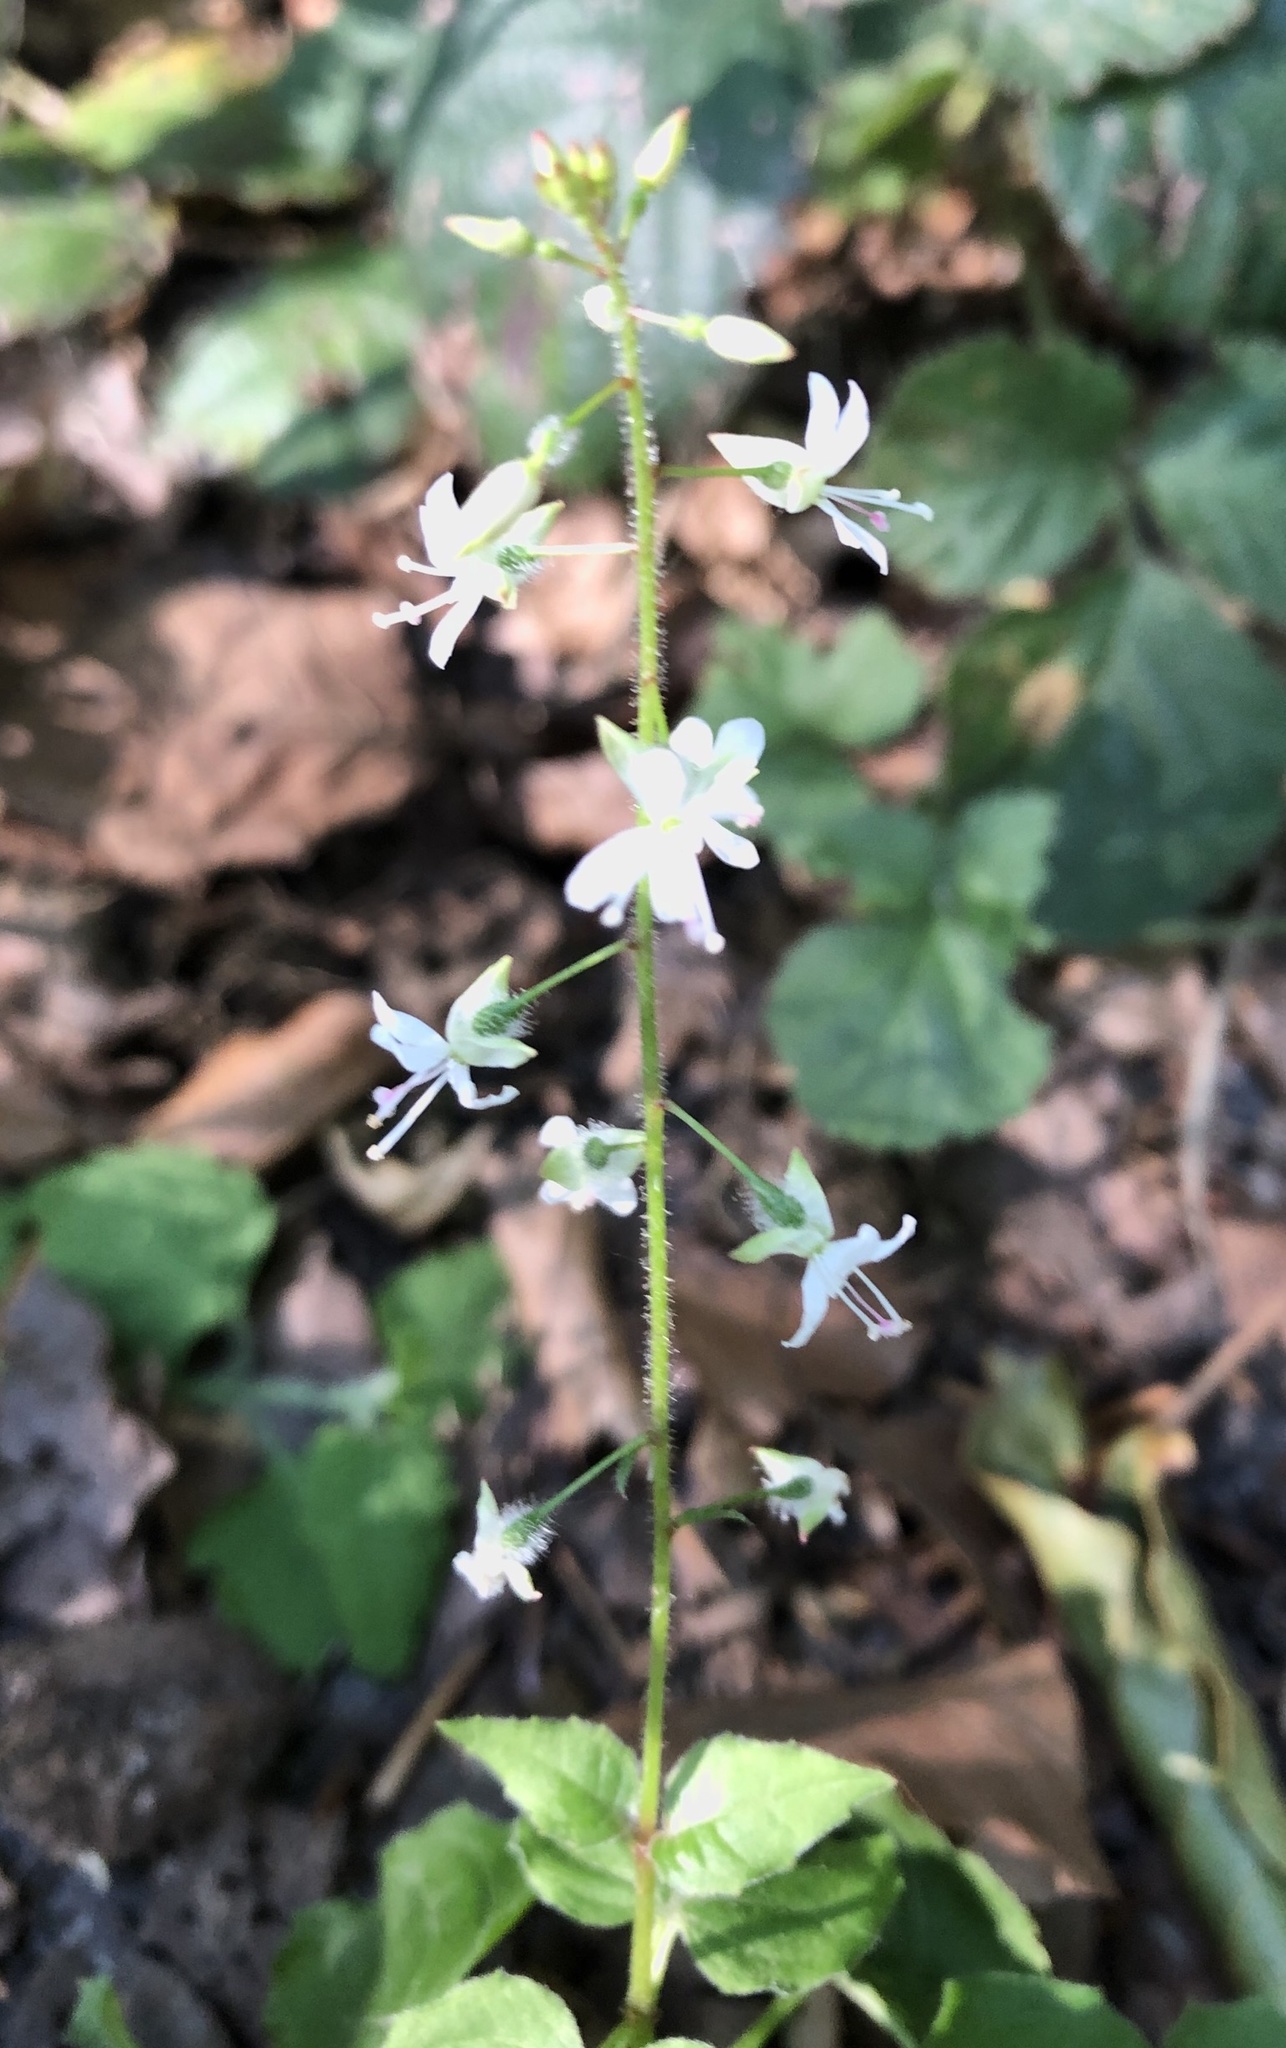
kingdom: Plantae
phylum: Tracheophyta
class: Magnoliopsida
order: Myrtales
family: Onagraceae
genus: Circaea
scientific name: Circaea lutetiana
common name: Enchanter's-nightshade
